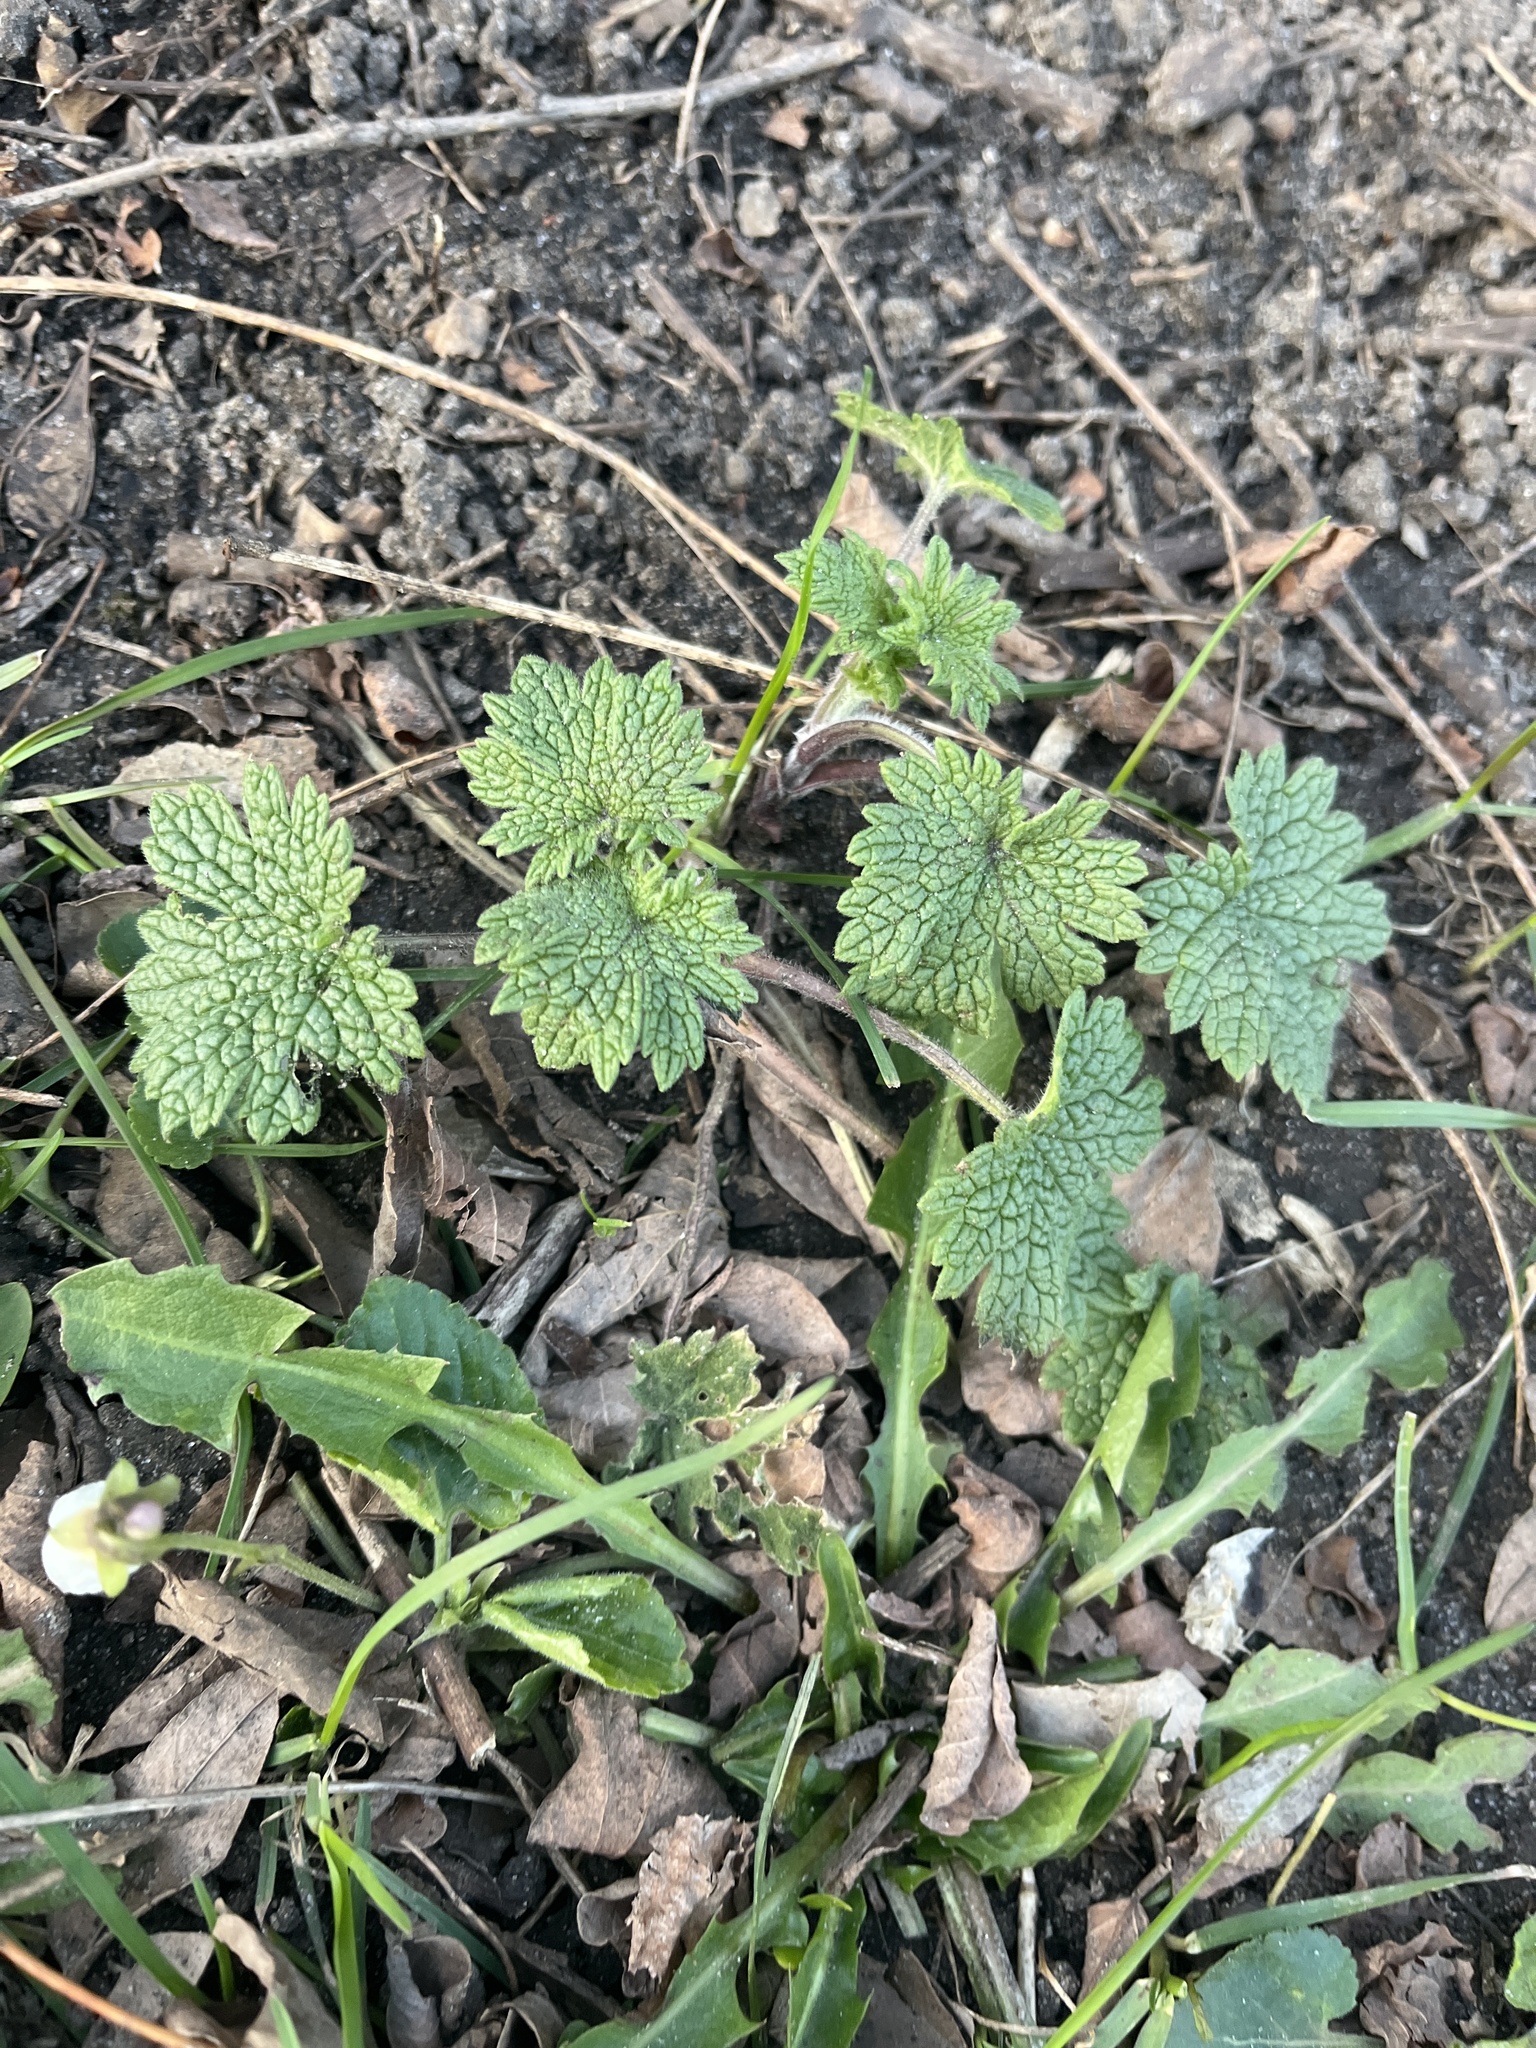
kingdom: Plantae
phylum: Tracheophyta
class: Magnoliopsida
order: Lamiales
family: Lamiaceae
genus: Leonurus
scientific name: Leonurus cardiaca
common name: Motherwort
